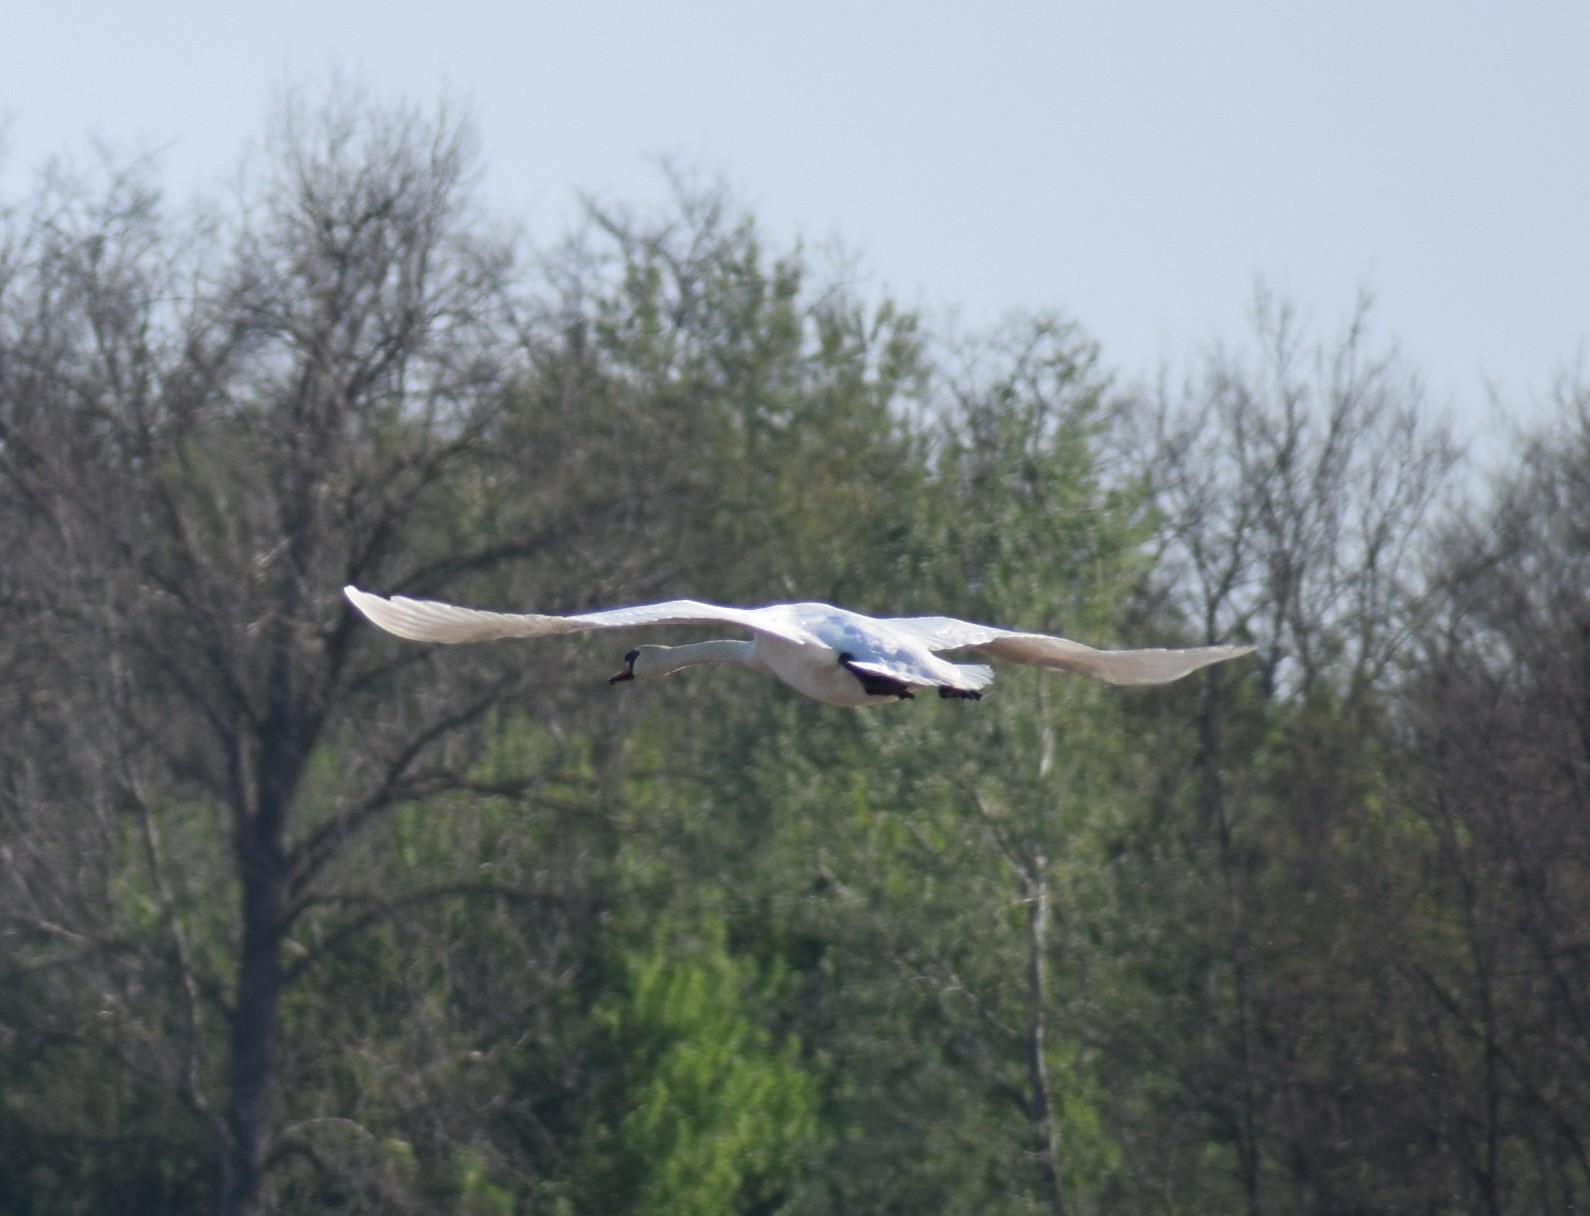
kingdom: Animalia
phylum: Chordata
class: Aves
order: Anseriformes
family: Anatidae
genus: Cygnus
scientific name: Cygnus olor
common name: Mute swan
